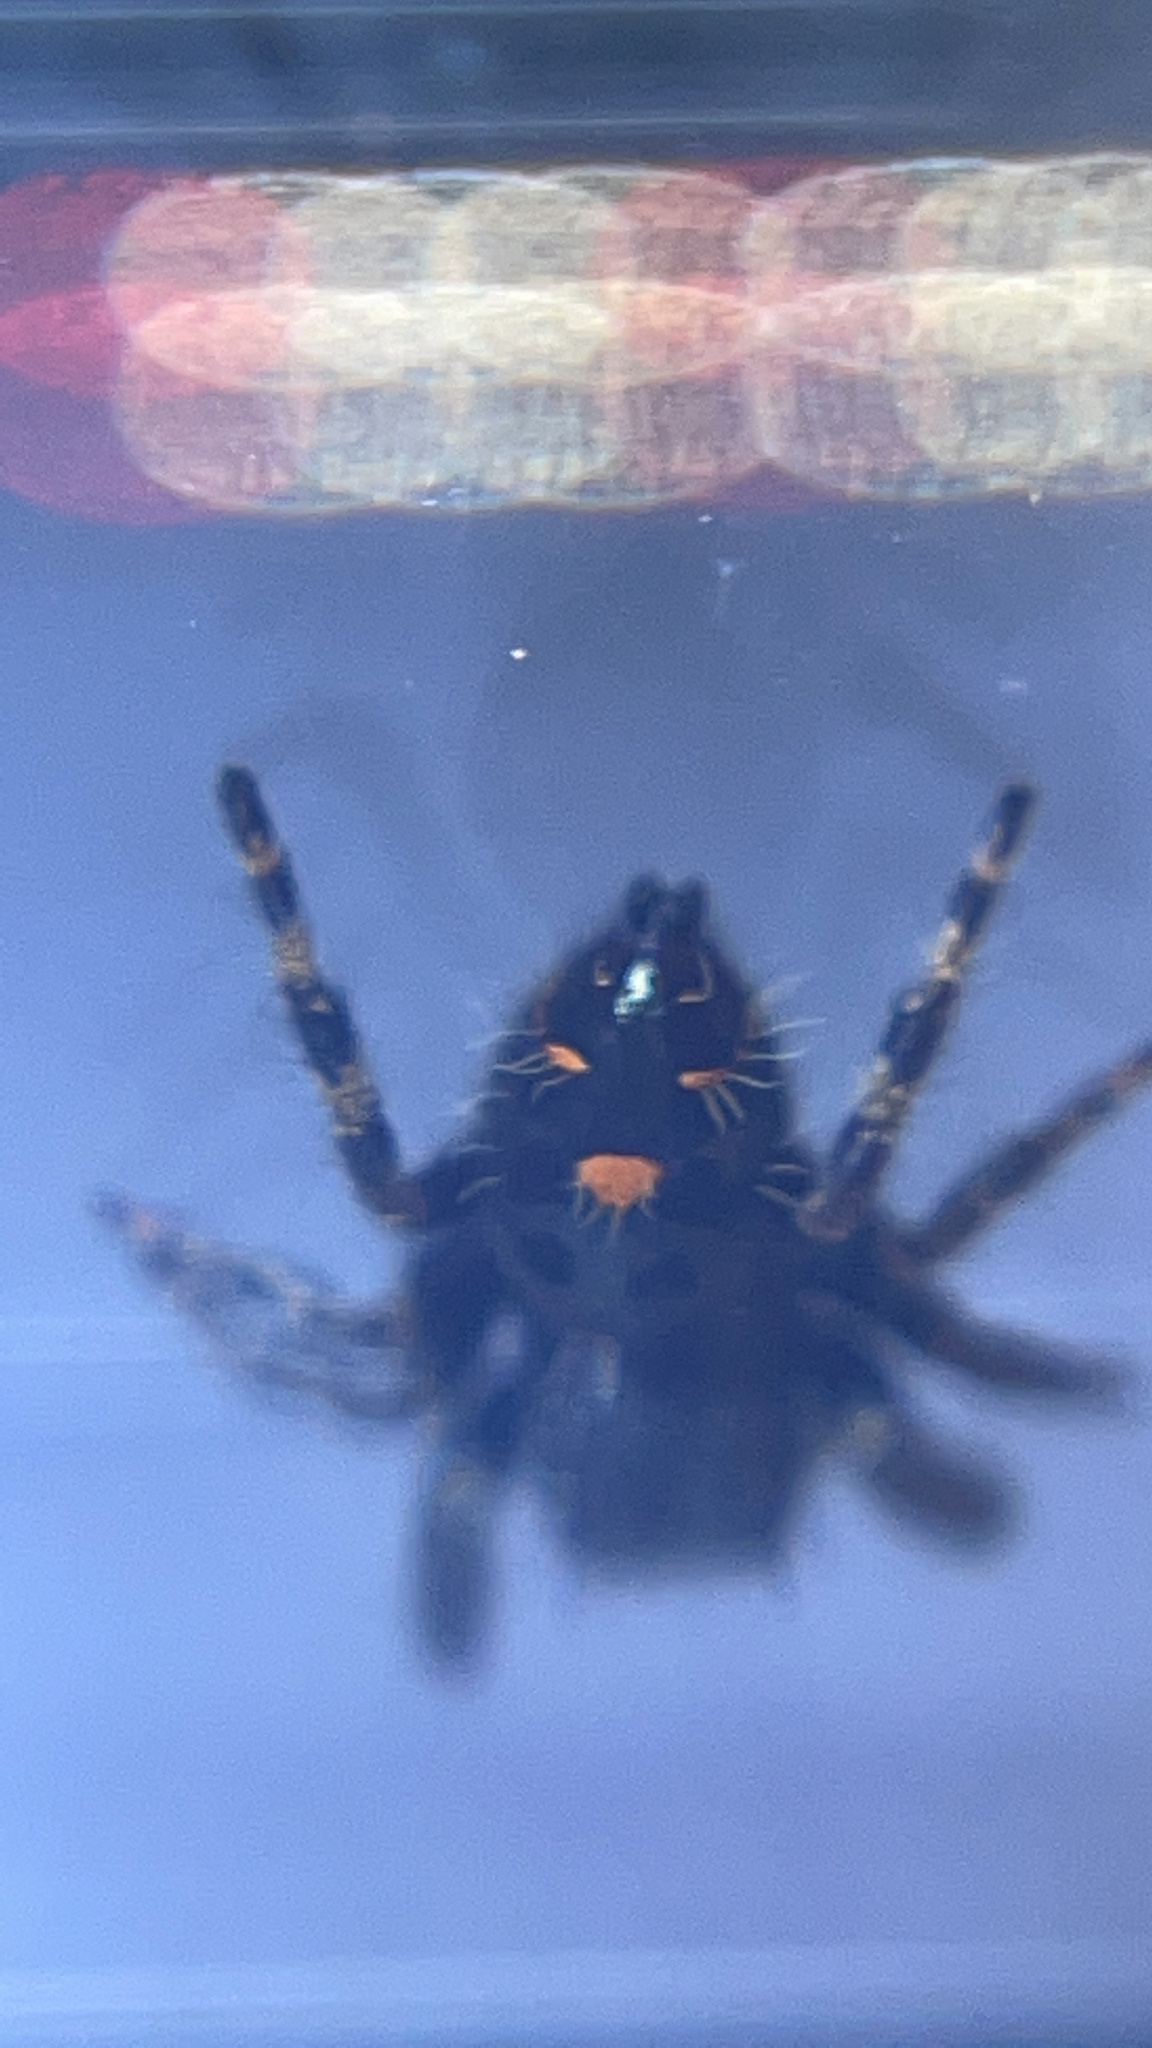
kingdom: Animalia
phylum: Arthropoda
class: Arachnida
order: Araneae
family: Salticidae
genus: Phidippus
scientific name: Phidippus audax
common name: Bold jumper
